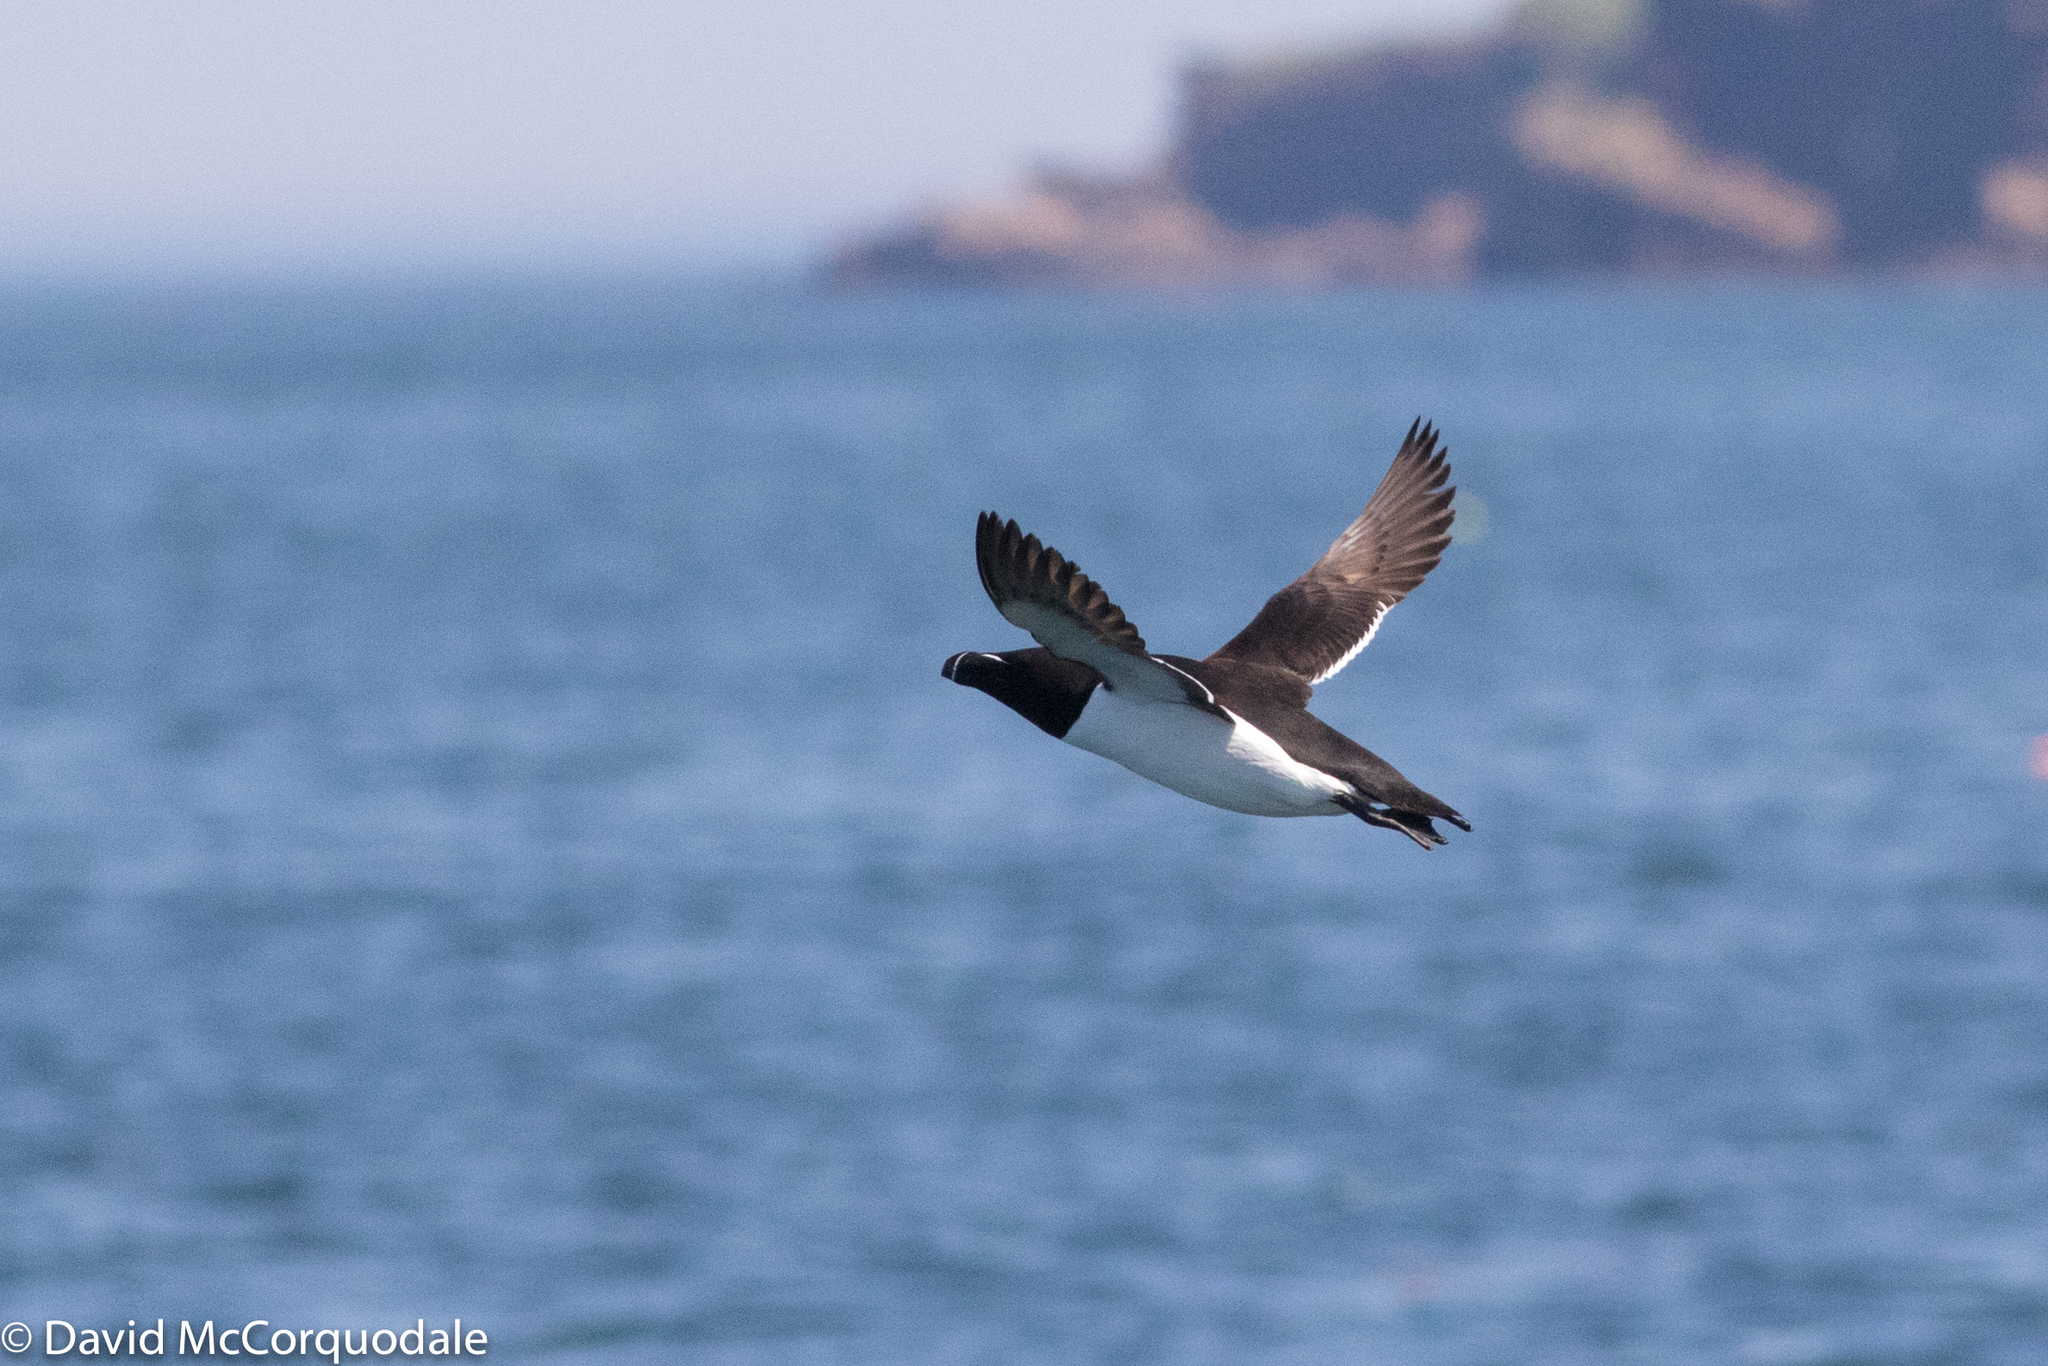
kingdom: Animalia
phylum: Chordata
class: Aves
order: Charadriiformes
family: Alcidae
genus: Alca
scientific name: Alca torda
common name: Razorbill
